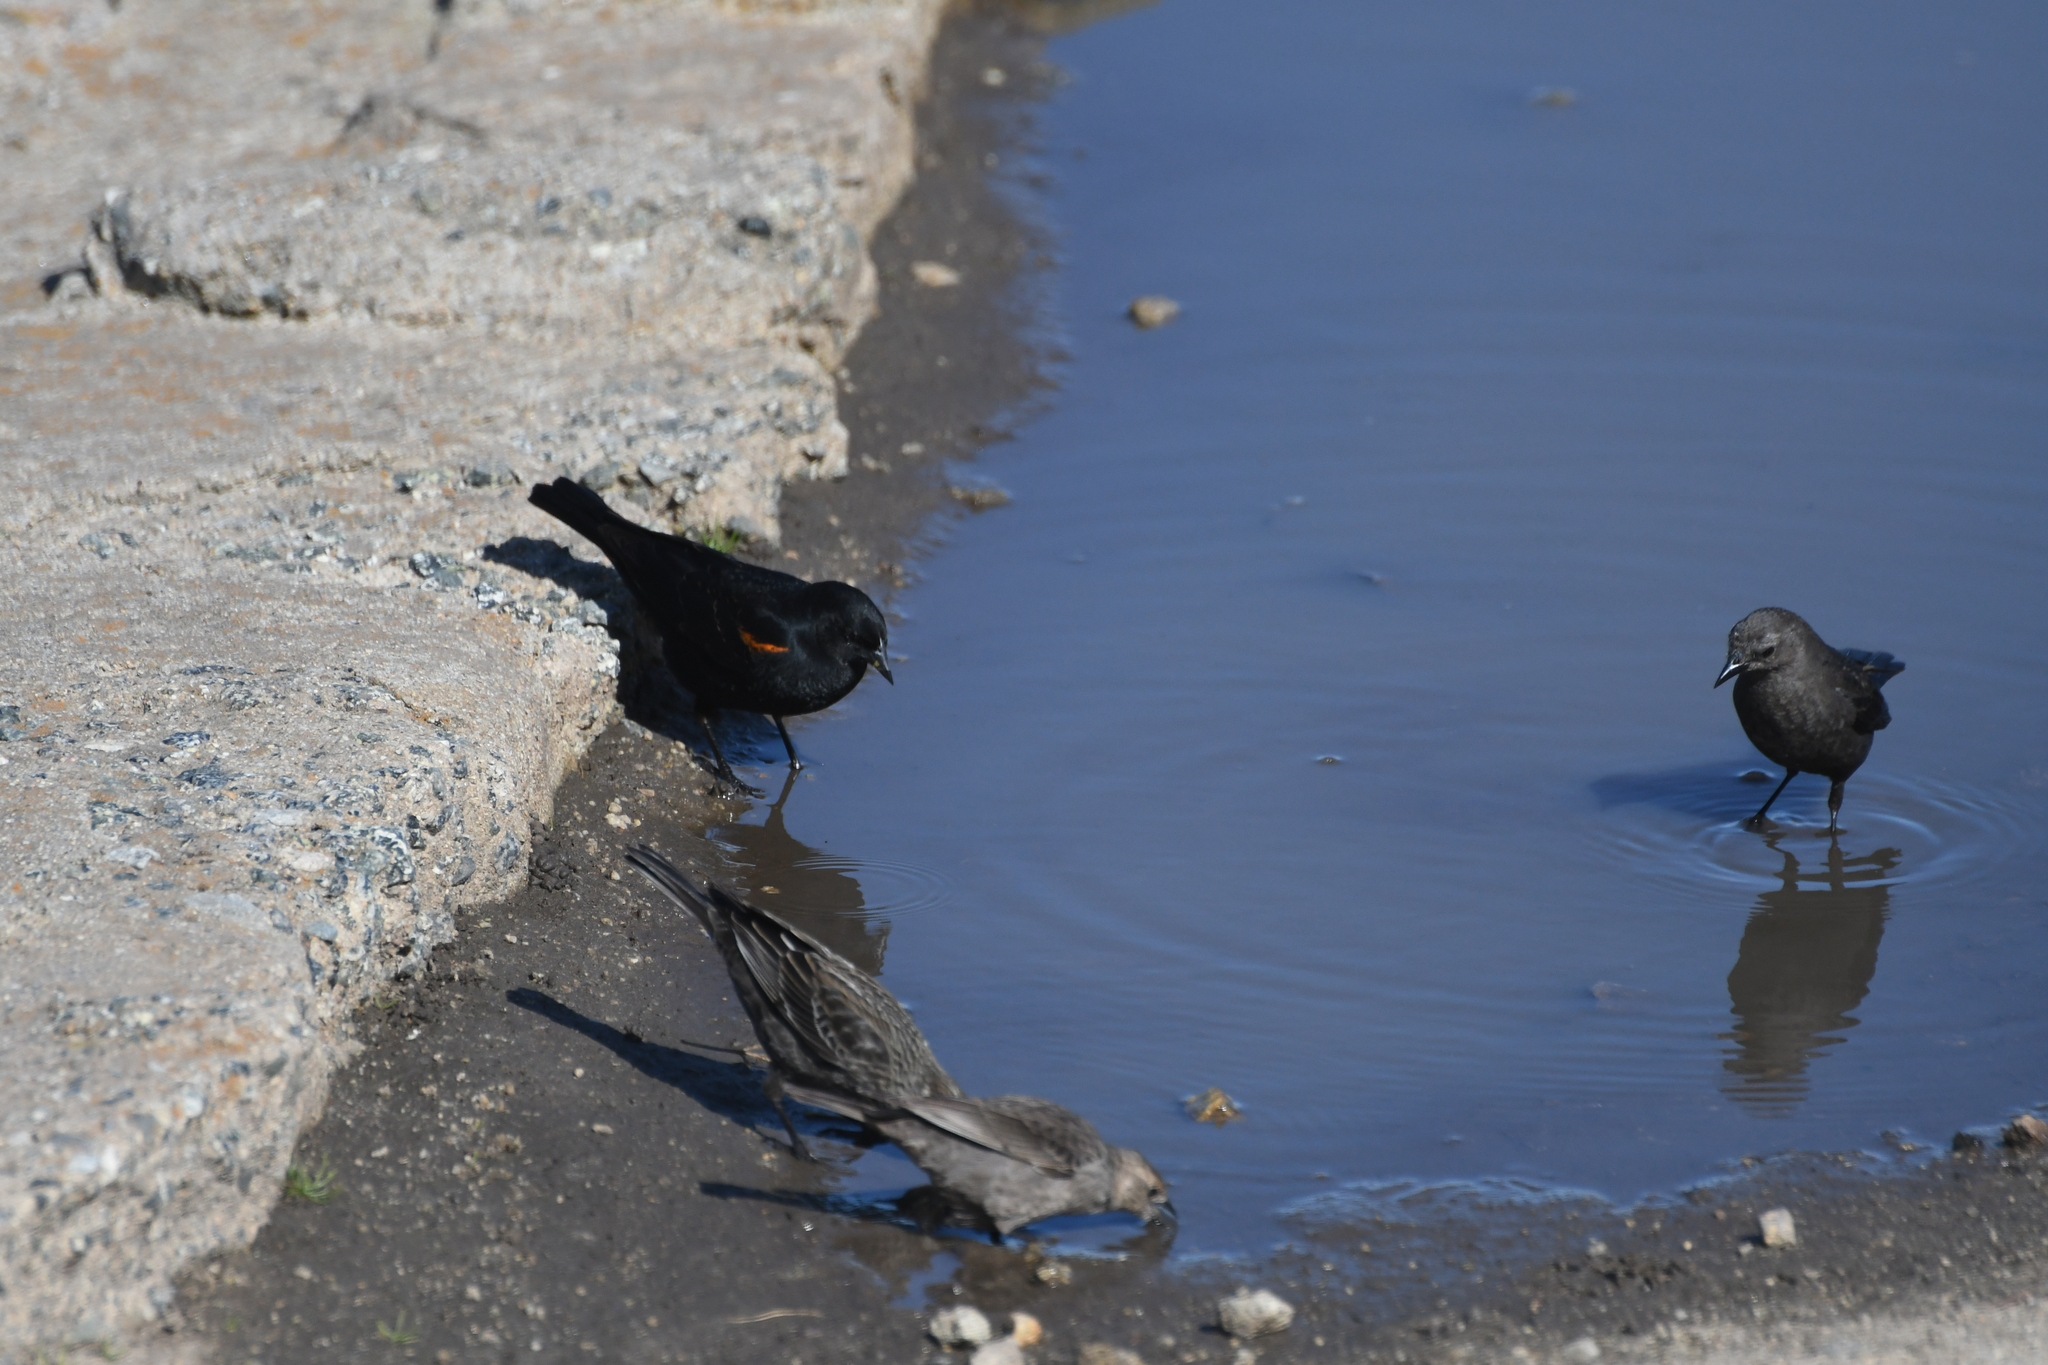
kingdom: Animalia
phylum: Chordata
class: Aves
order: Passeriformes
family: Icteridae
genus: Agelaius
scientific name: Agelaius phoeniceus
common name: Red-winged blackbird
